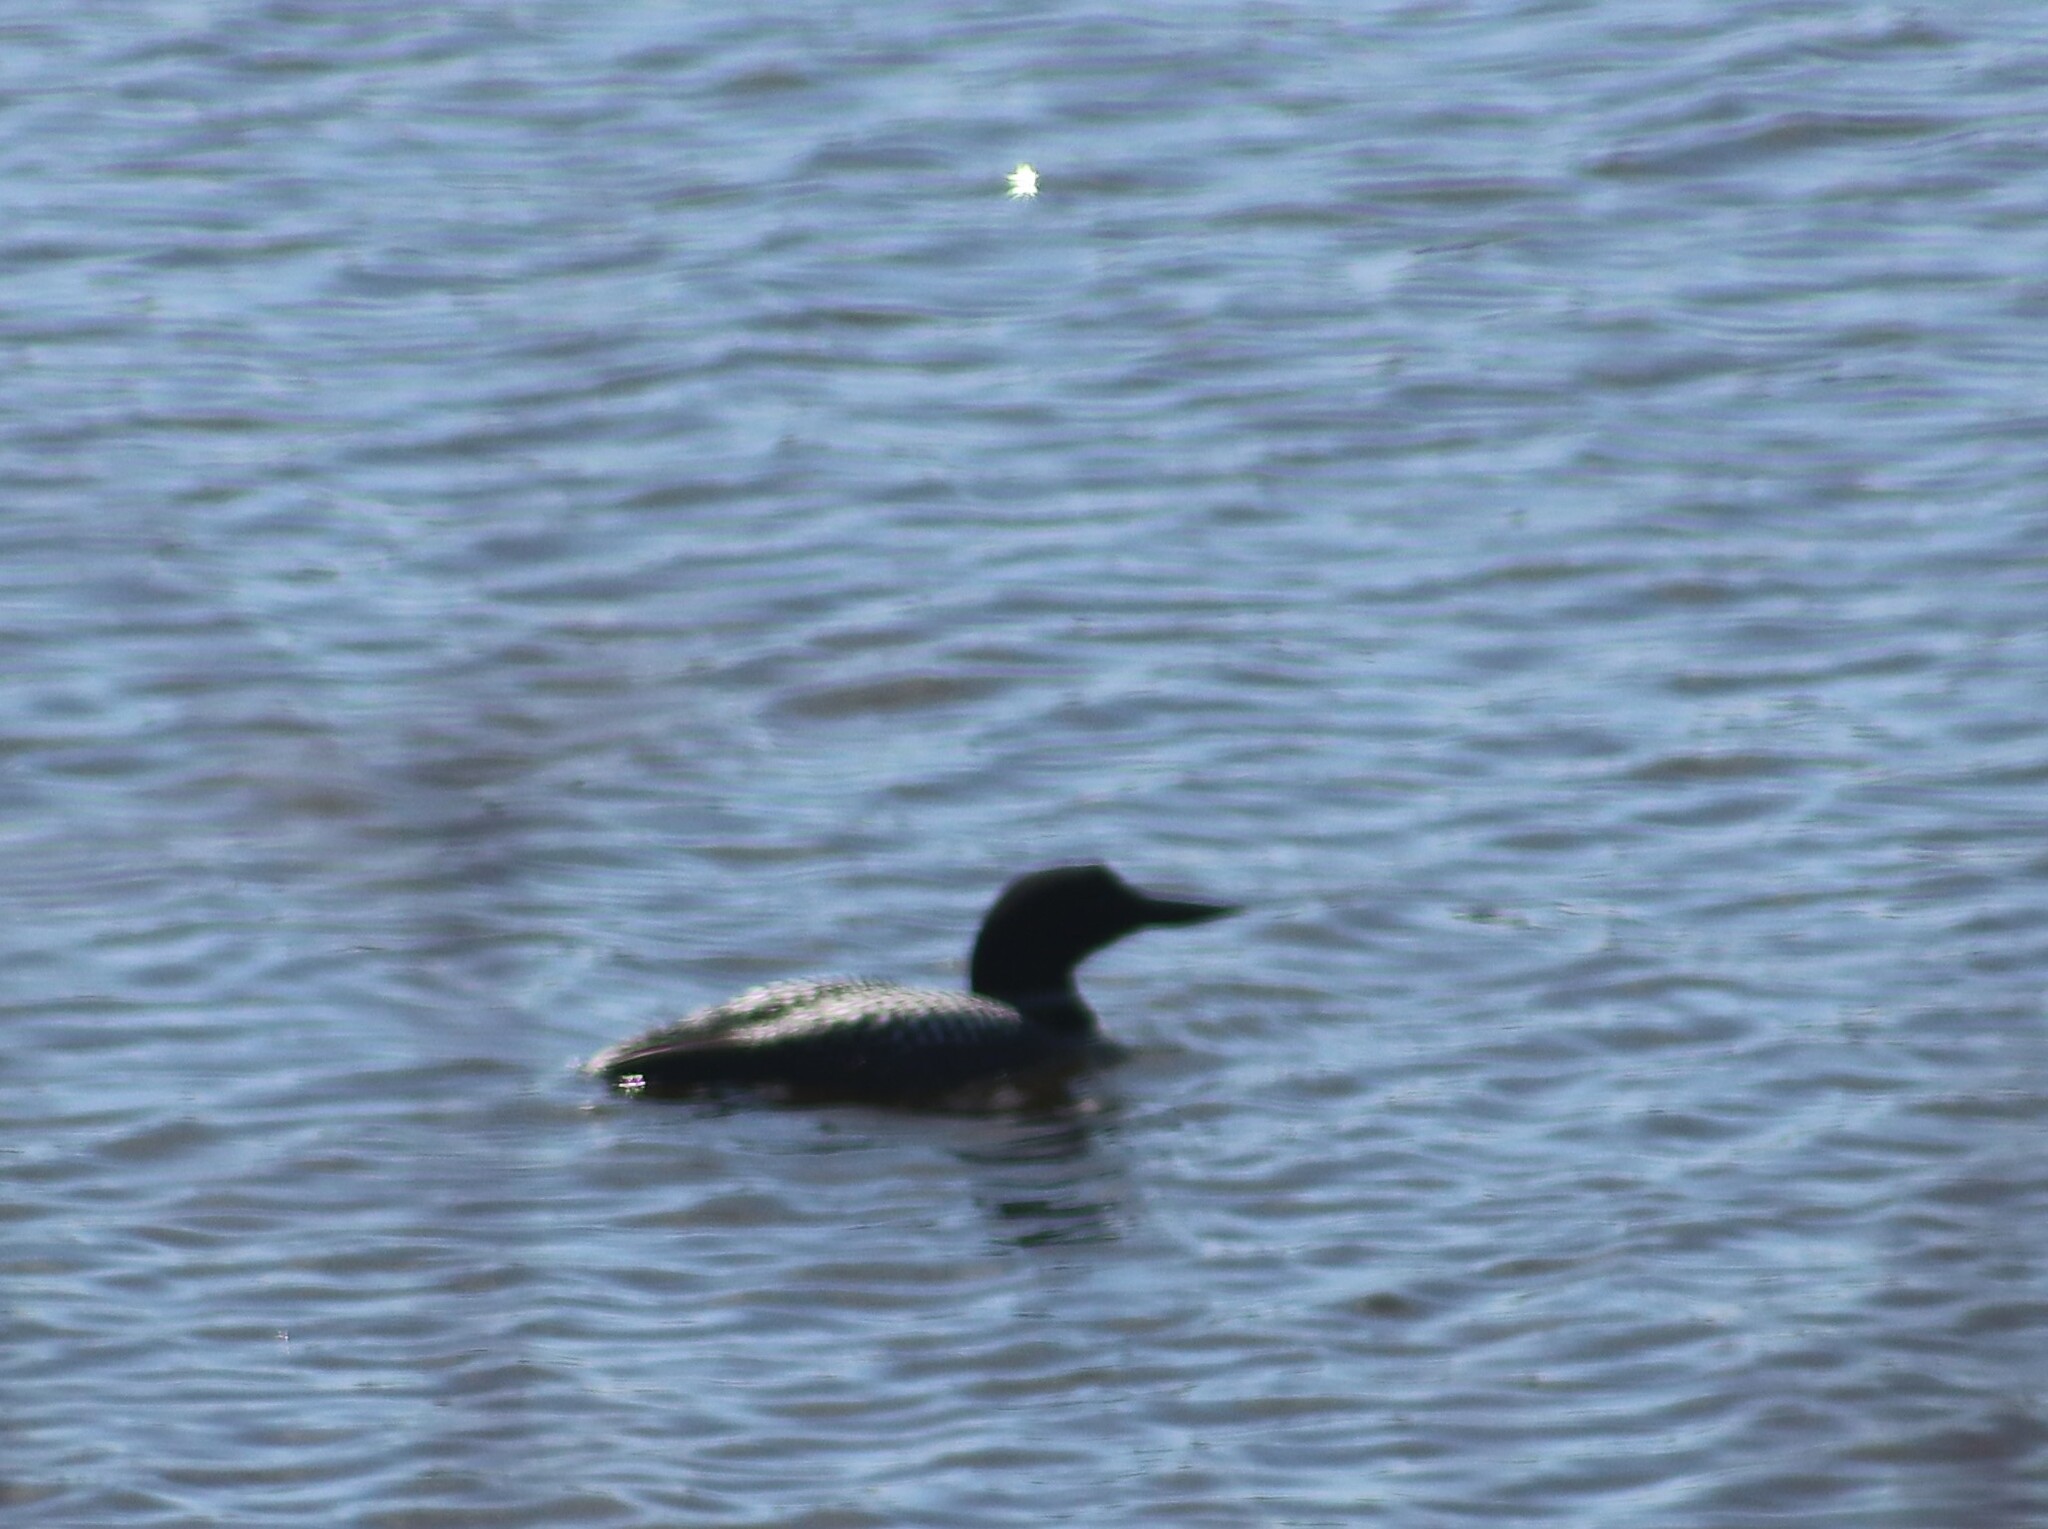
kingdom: Animalia
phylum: Chordata
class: Aves
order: Gaviiformes
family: Gaviidae
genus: Gavia
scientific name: Gavia immer
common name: Common loon
